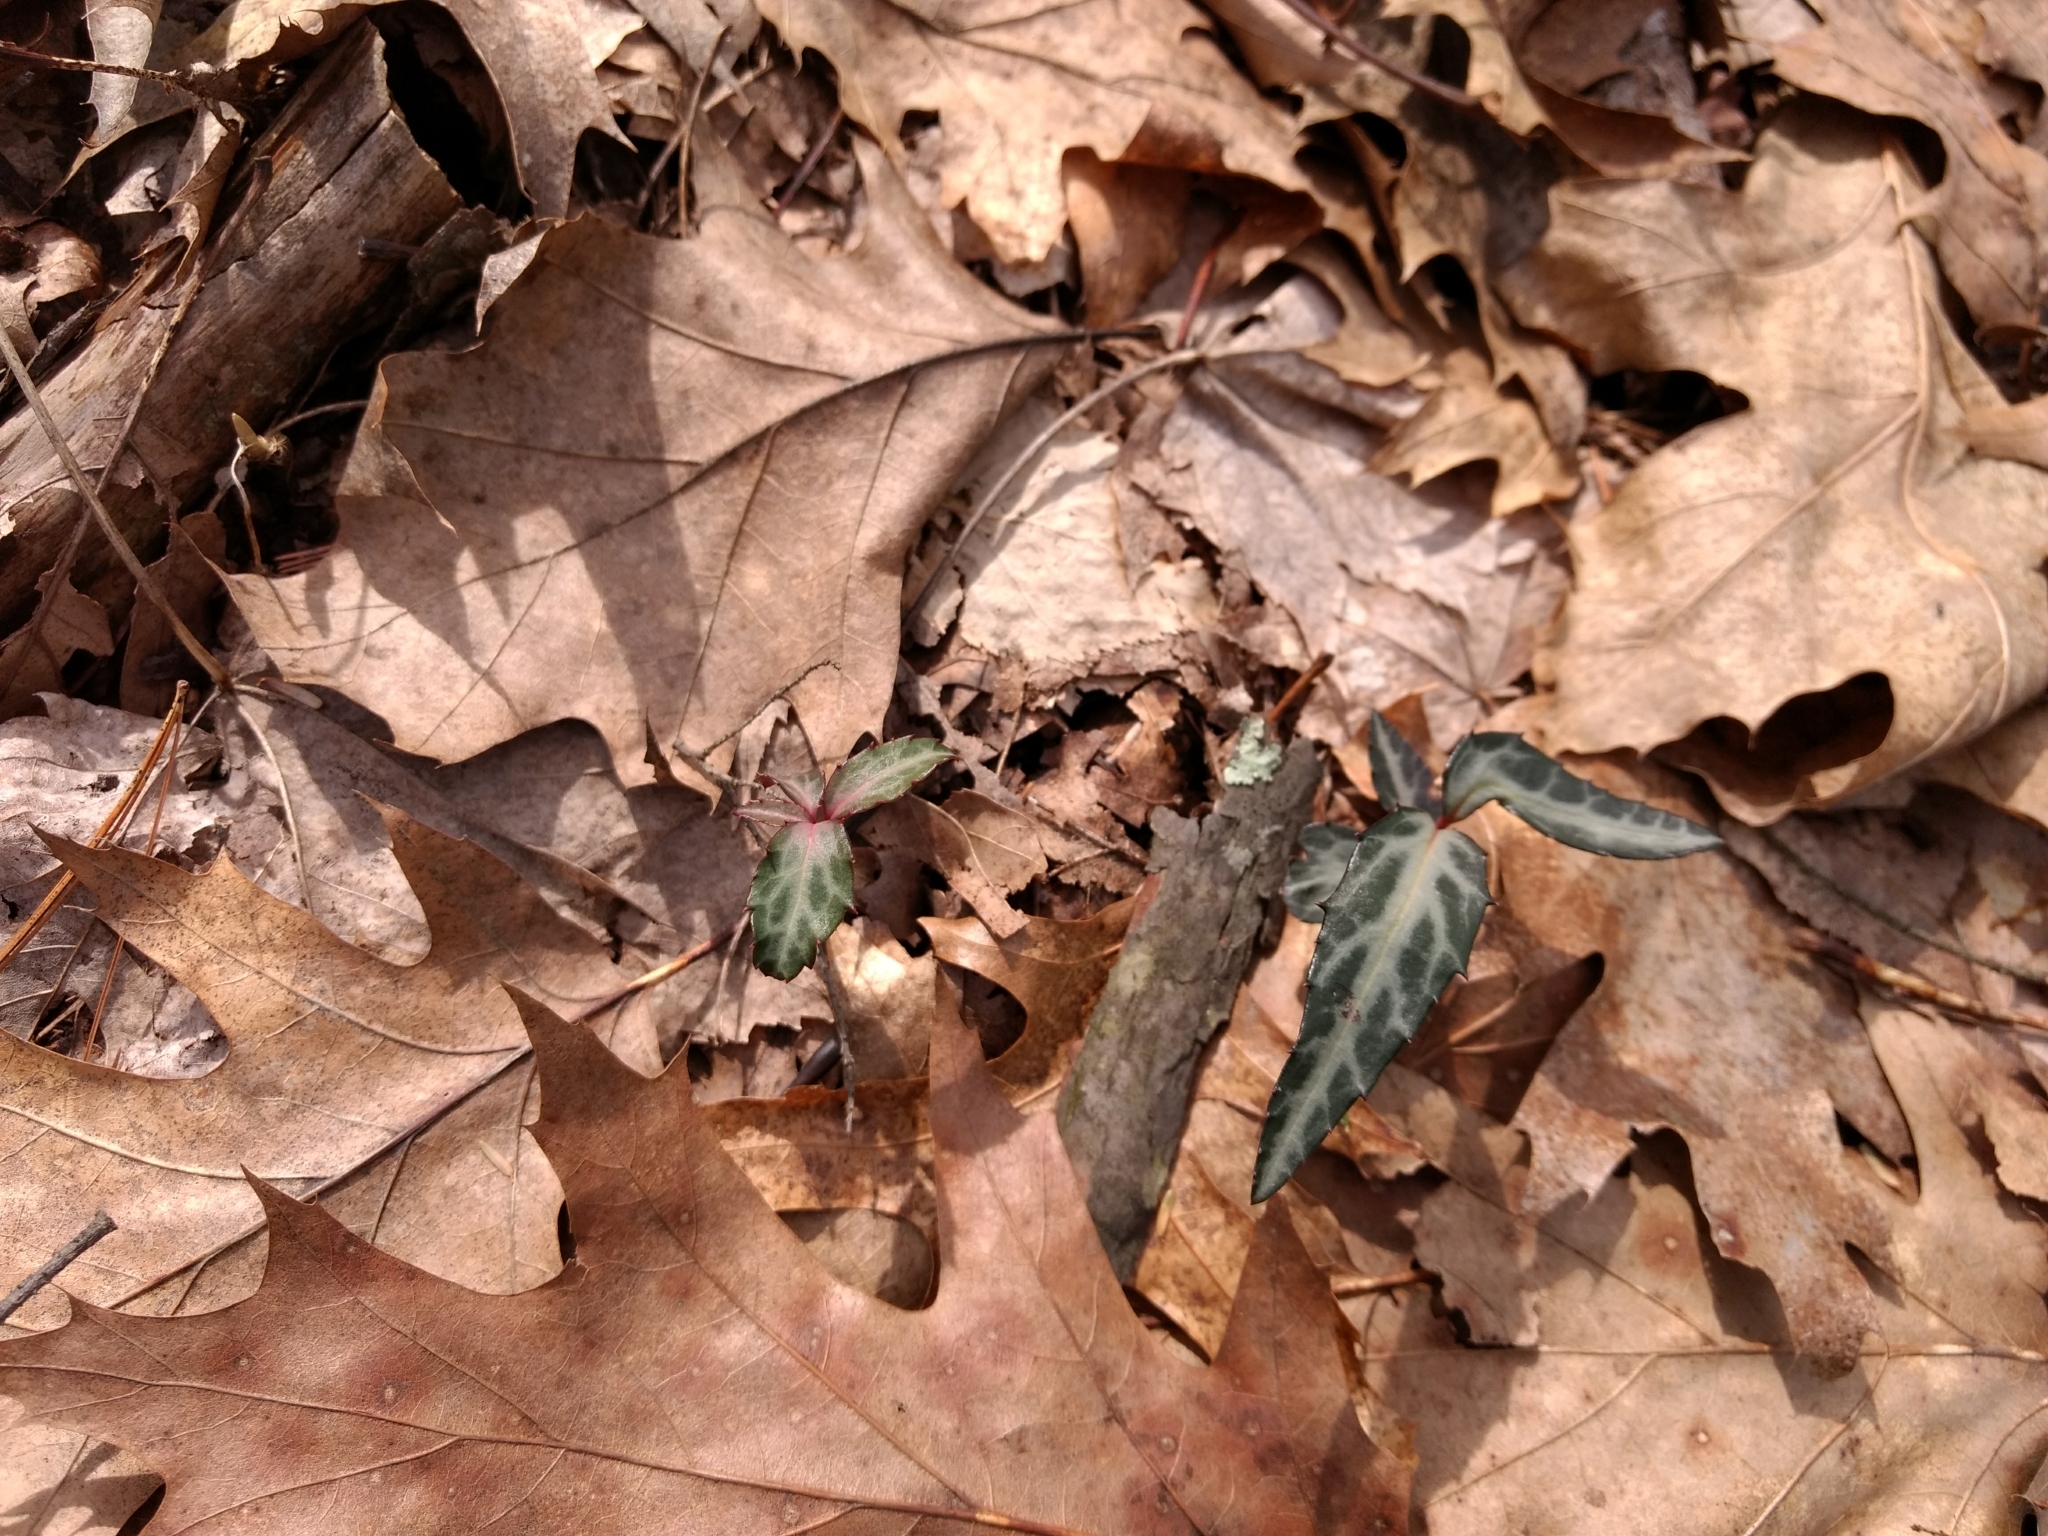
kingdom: Plantae
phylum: Tracheophyta
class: Magnoliopsida
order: Ericales
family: Ericaceae
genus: Chimaphila
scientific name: Chimaphila maculata
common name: Spotted pipsissewa
